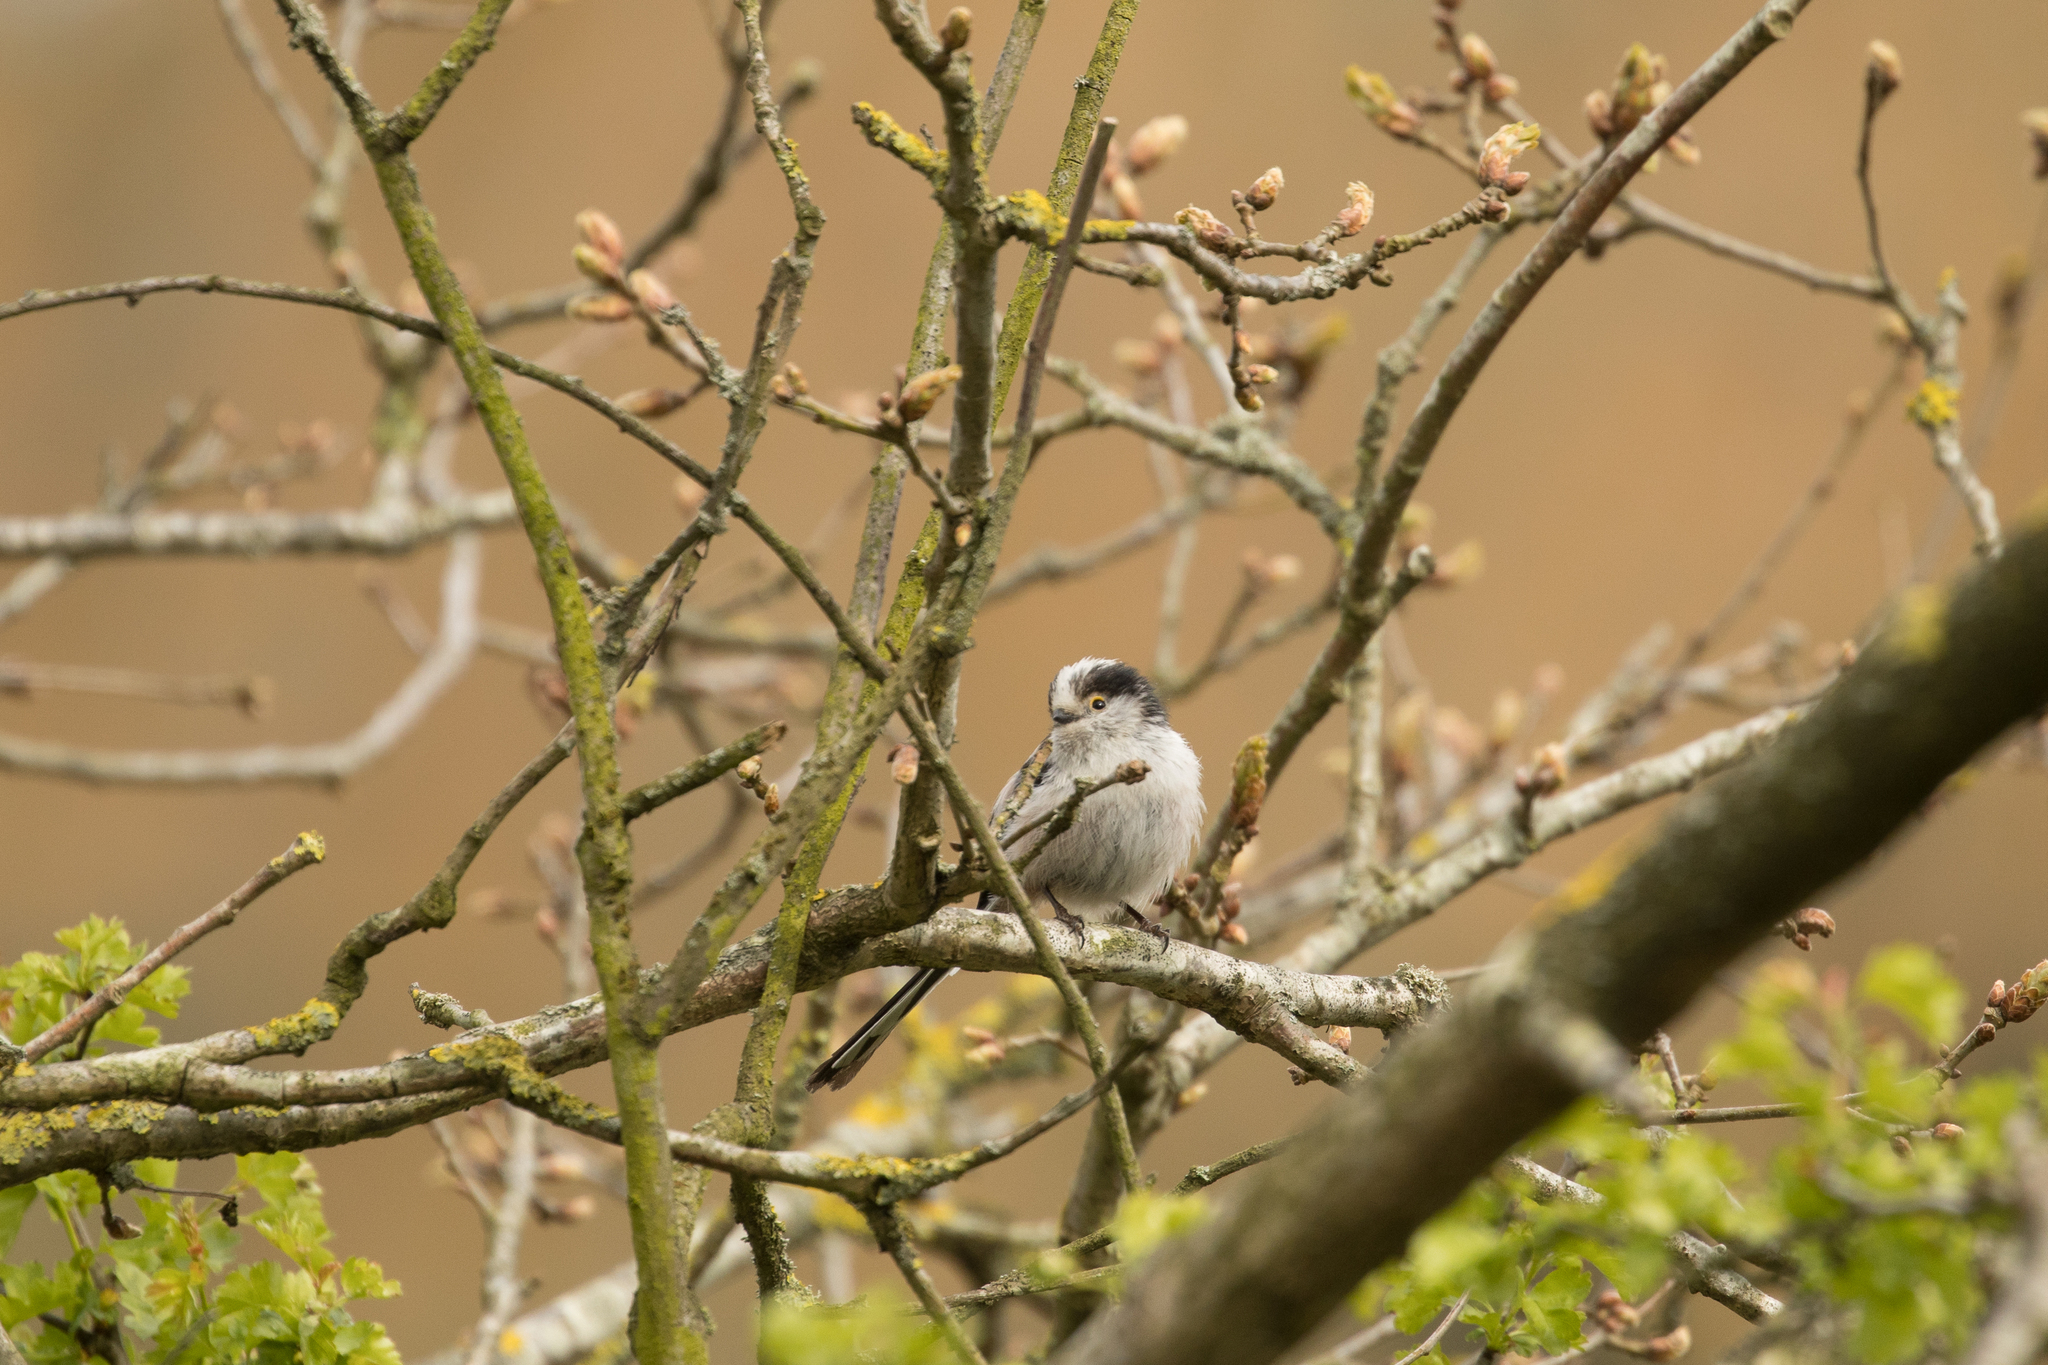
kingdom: Animalia
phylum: Chordata
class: Aves
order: Passeriformes
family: Aegithalidae
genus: Aegithalos
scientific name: Aegithalos caudatus
